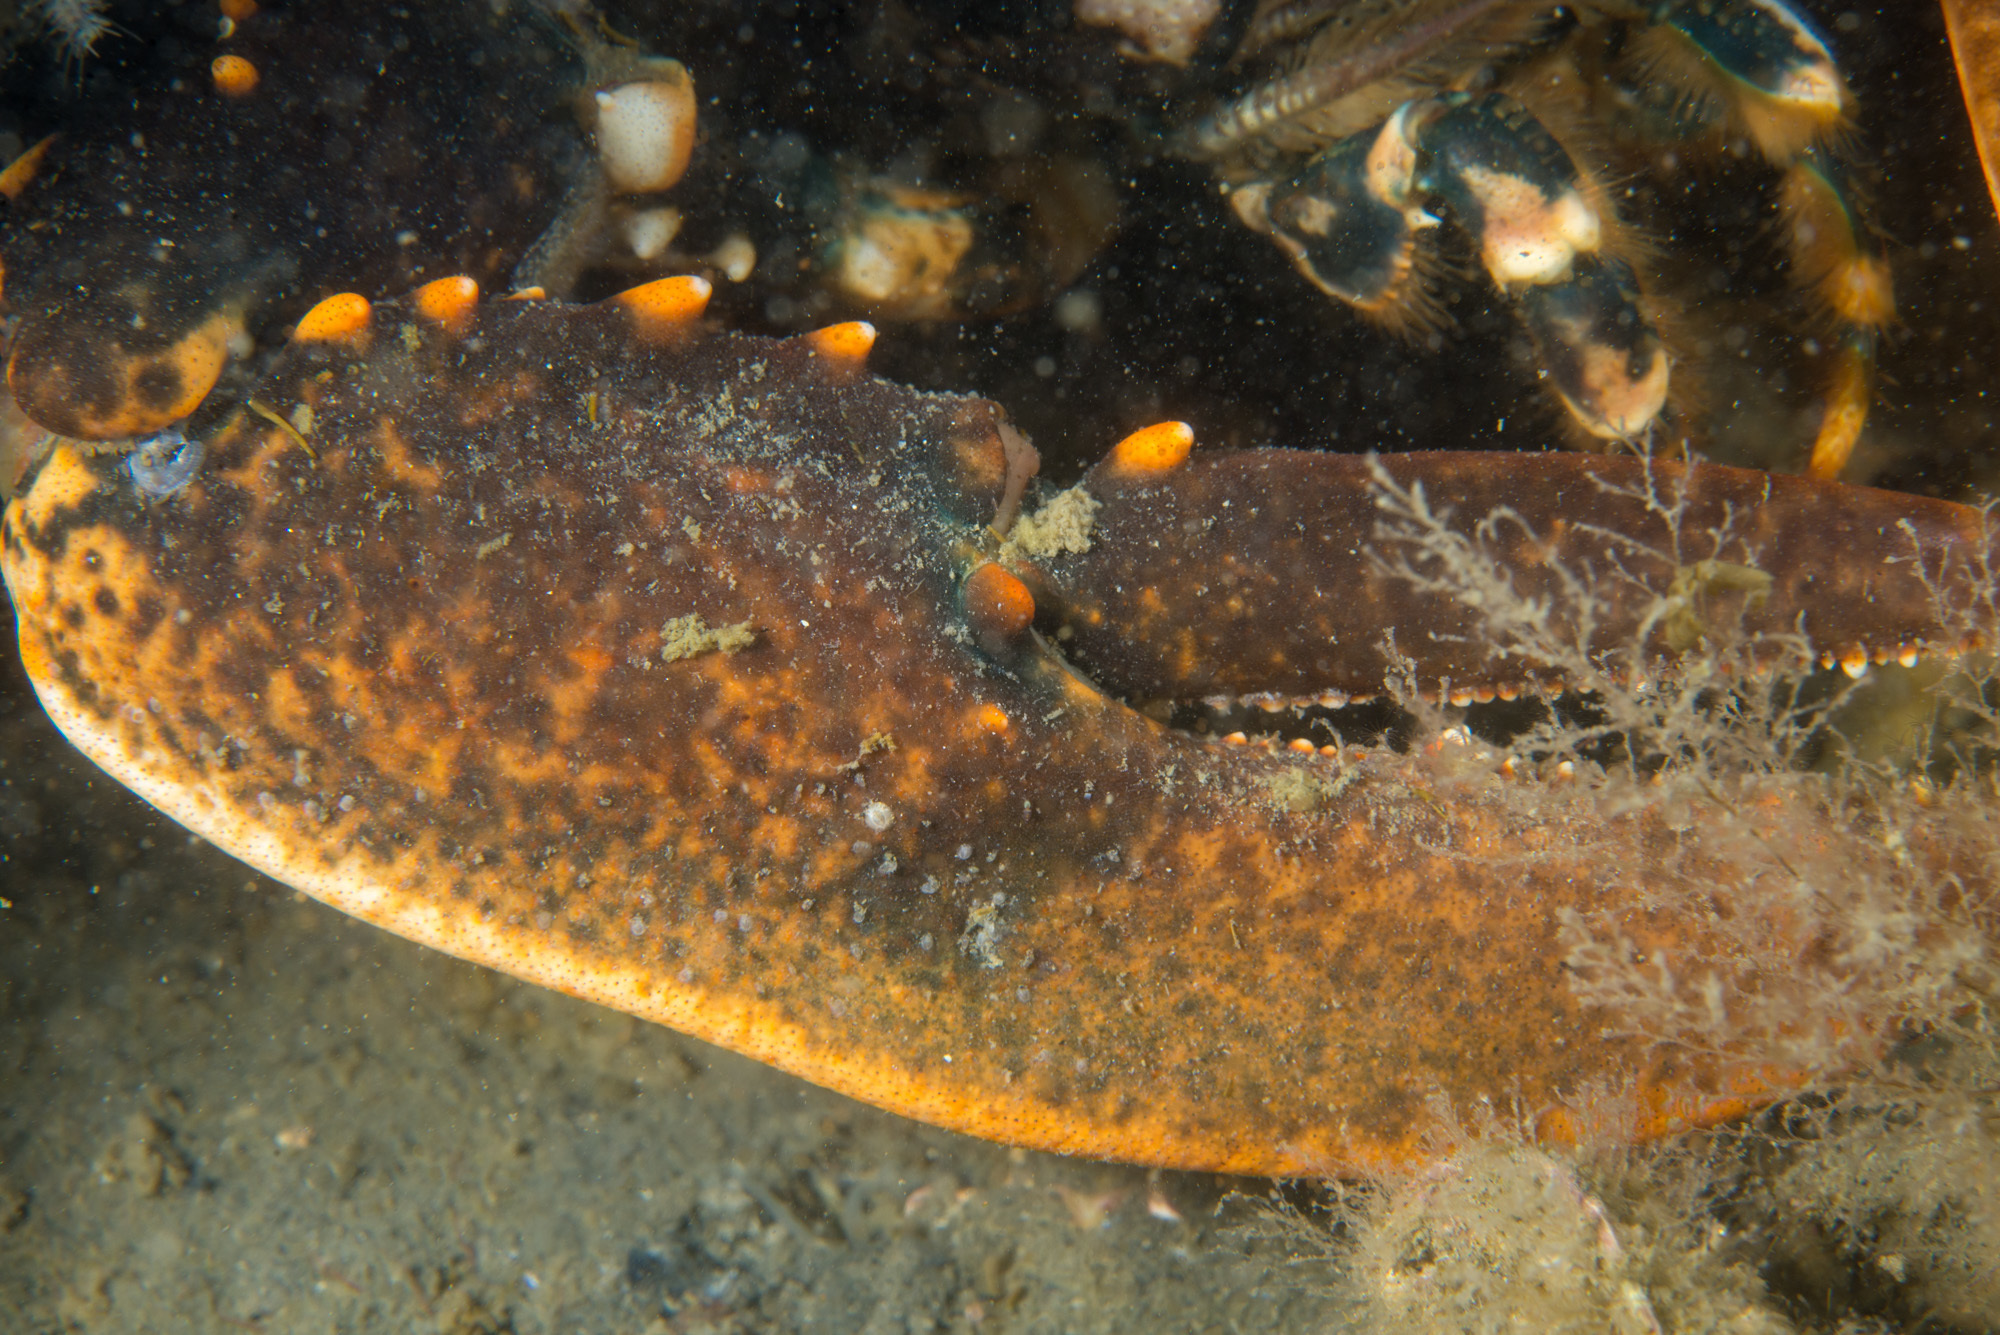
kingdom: Animalia
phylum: Arthropoda
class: Malacostraca
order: Decapoda
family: Nephropidae
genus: Homarus
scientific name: Homarus gammarus
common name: European lobster
